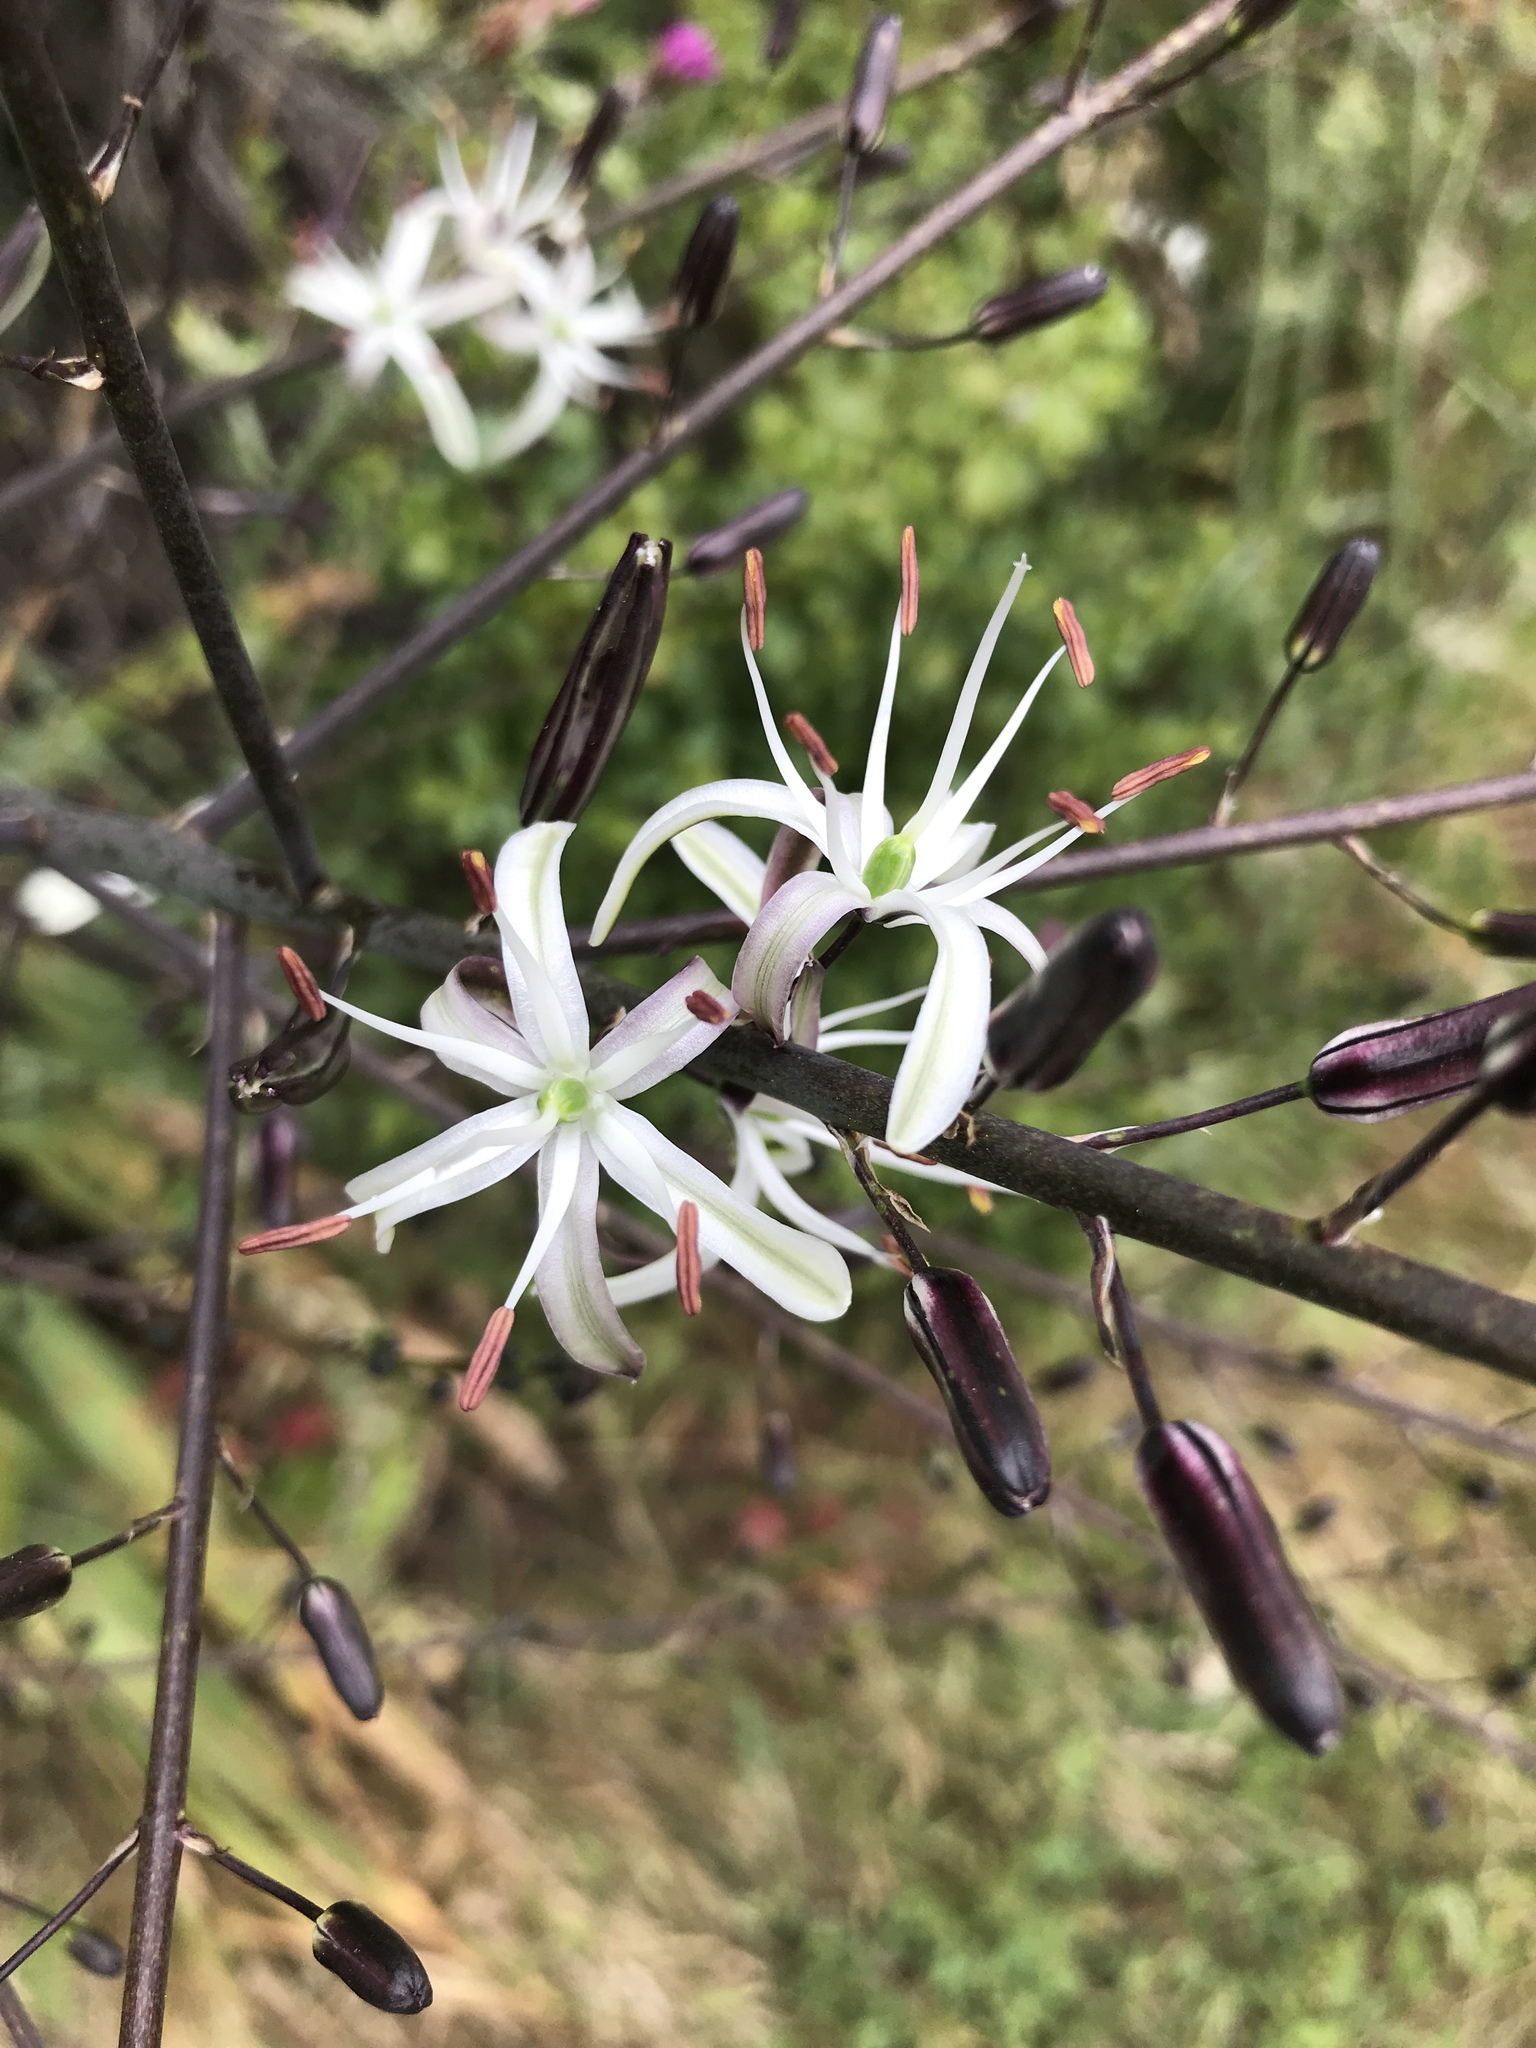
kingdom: Plantae
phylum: Tracheophyta
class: Liliopsida
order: Asparagales
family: Asparagaceae
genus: Chlorogalum
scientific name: Chlorogalum pomeridianum
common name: Amole
